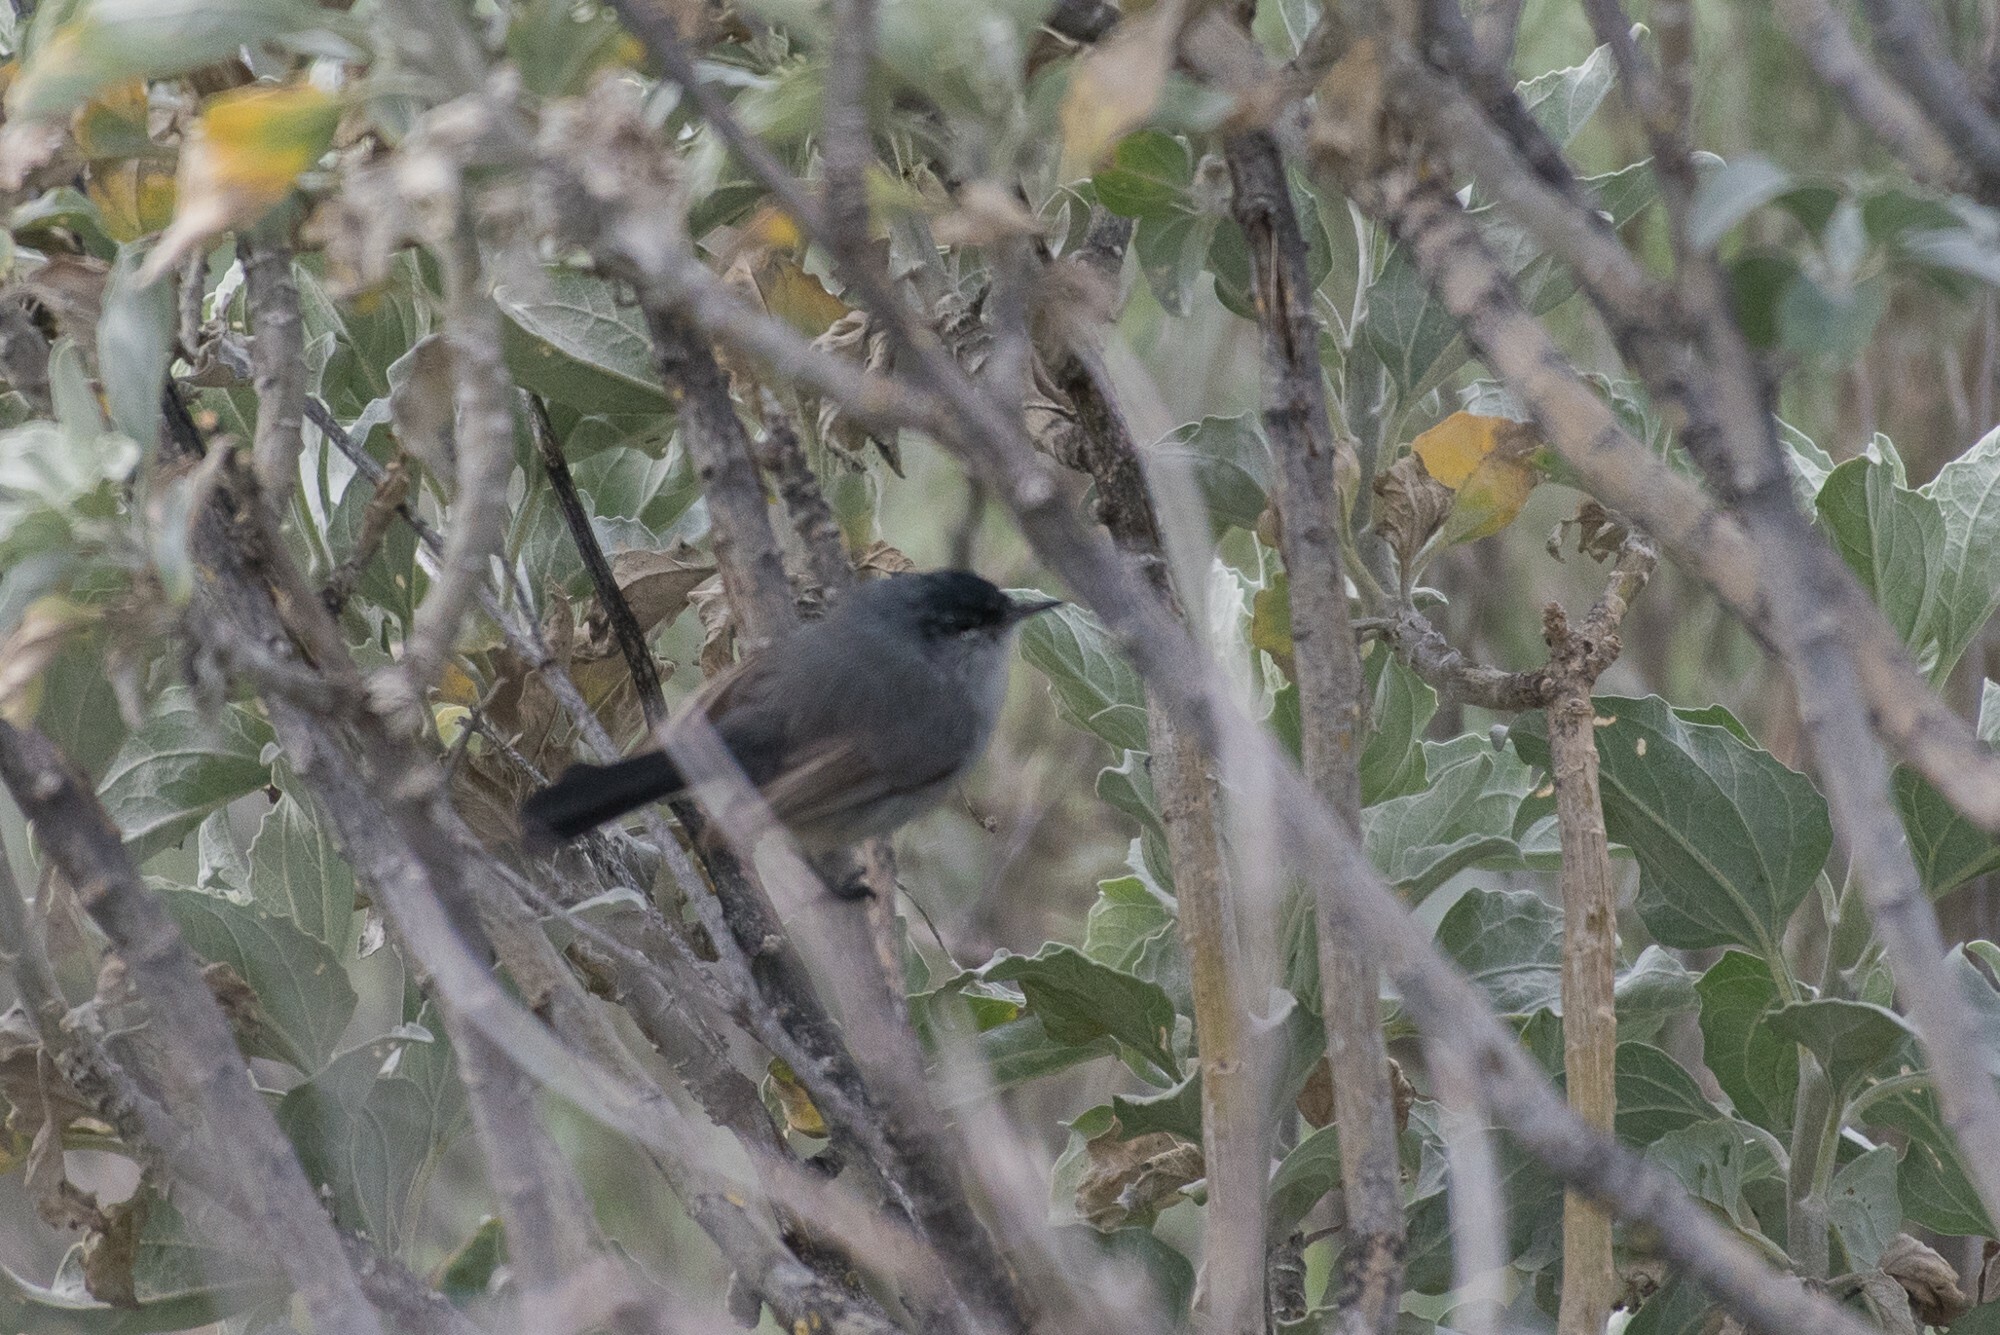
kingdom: Animalia
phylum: Chordata
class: Aves
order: Passeriformes
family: Polioptilidae
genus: Polioptila
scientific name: Polioptila californica
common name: California gnatcatcher
